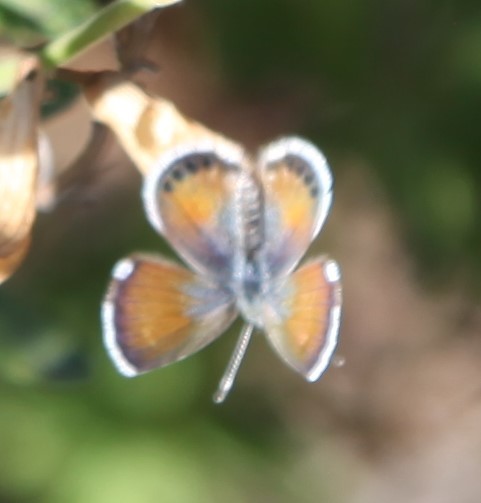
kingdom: Animalia
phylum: Arthropoda
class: Insecta
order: Lepidoptera
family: Lycaenidae
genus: Brephidium
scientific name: Brephidium exilis
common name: Pygmy blue
